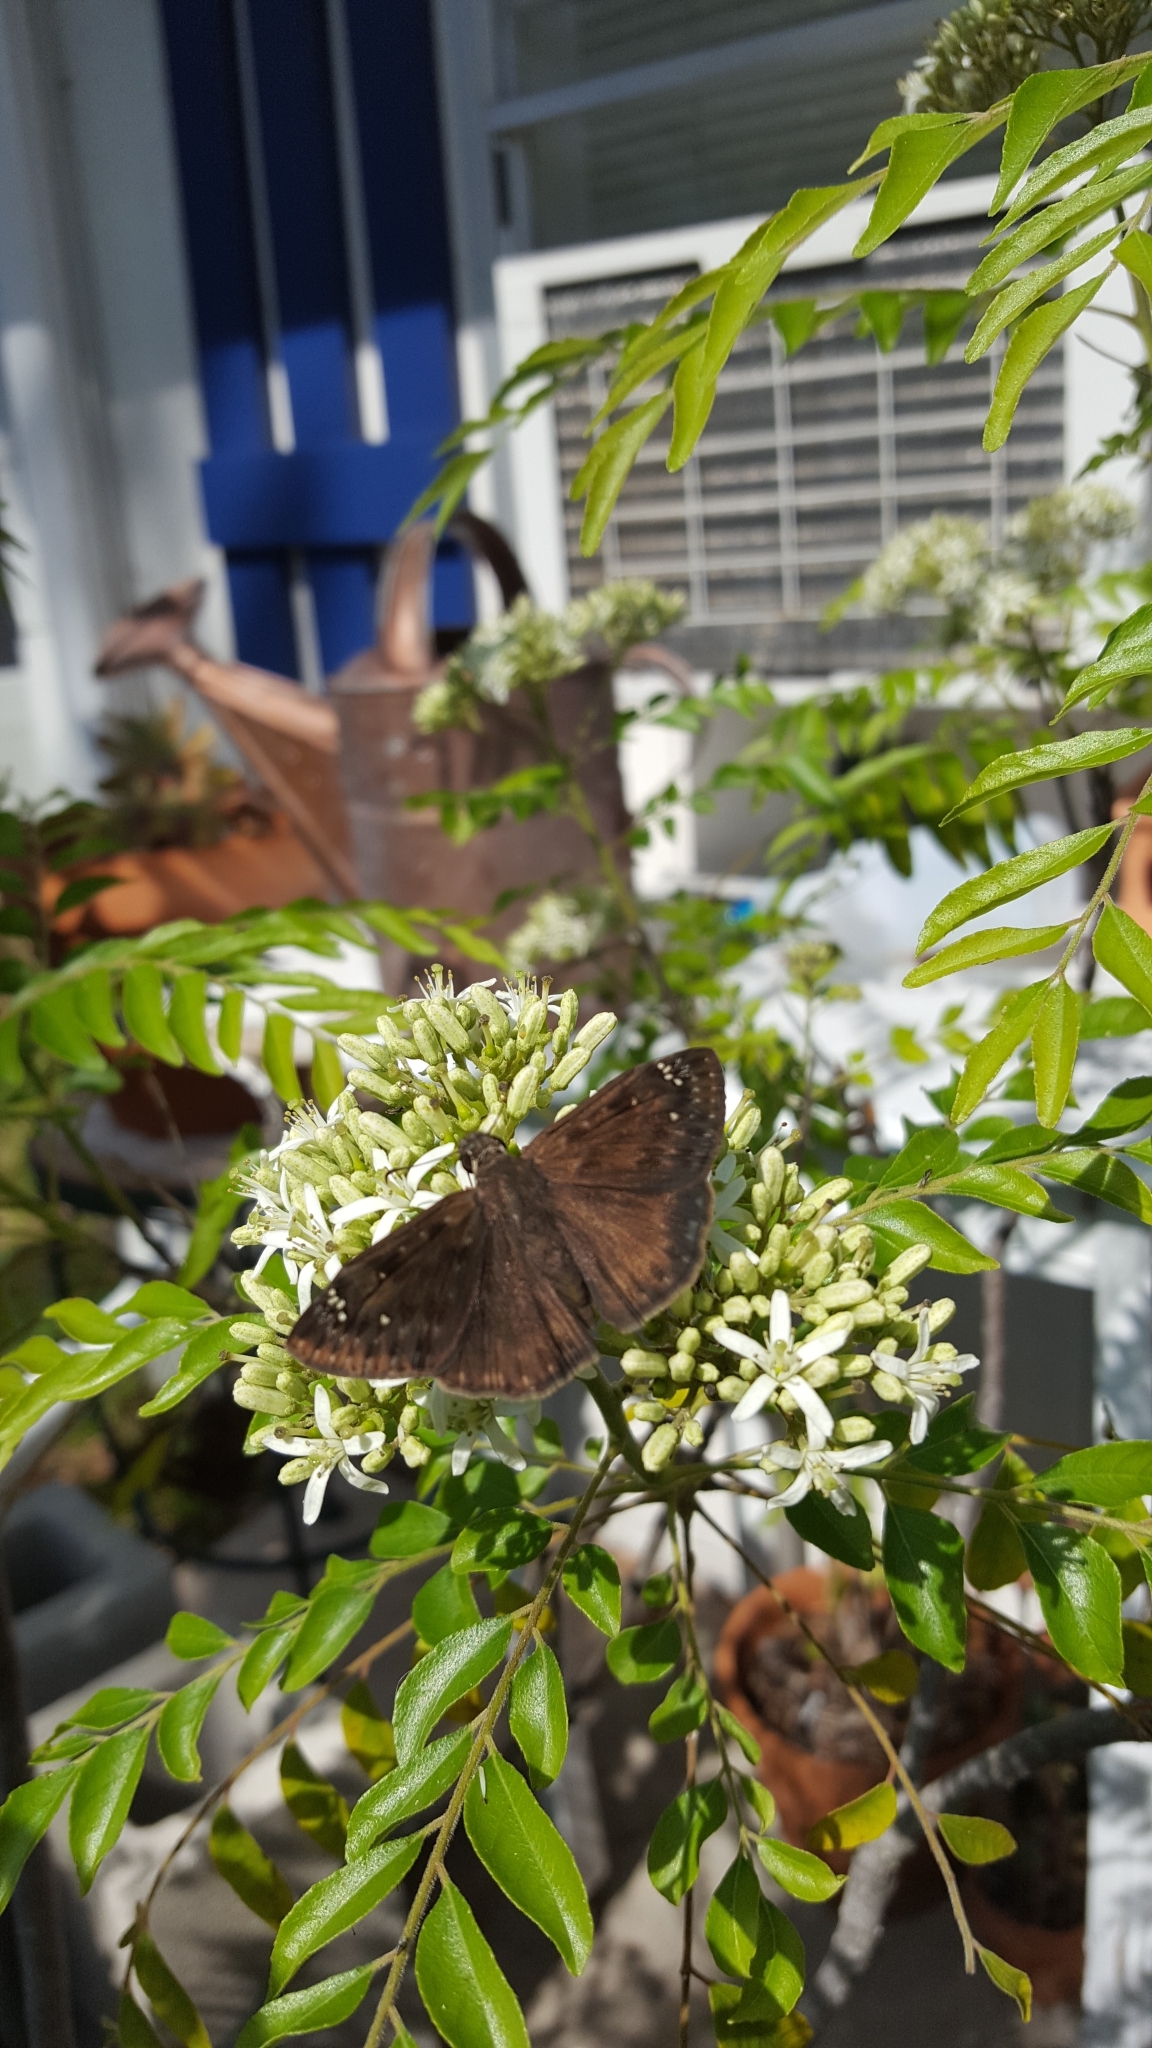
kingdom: Animalia
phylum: Arthropoda
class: Insecta
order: Lepidoptera
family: Hesperiidae
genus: Erynnis
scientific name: Erynnis horatius
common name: Horace's duskywing
